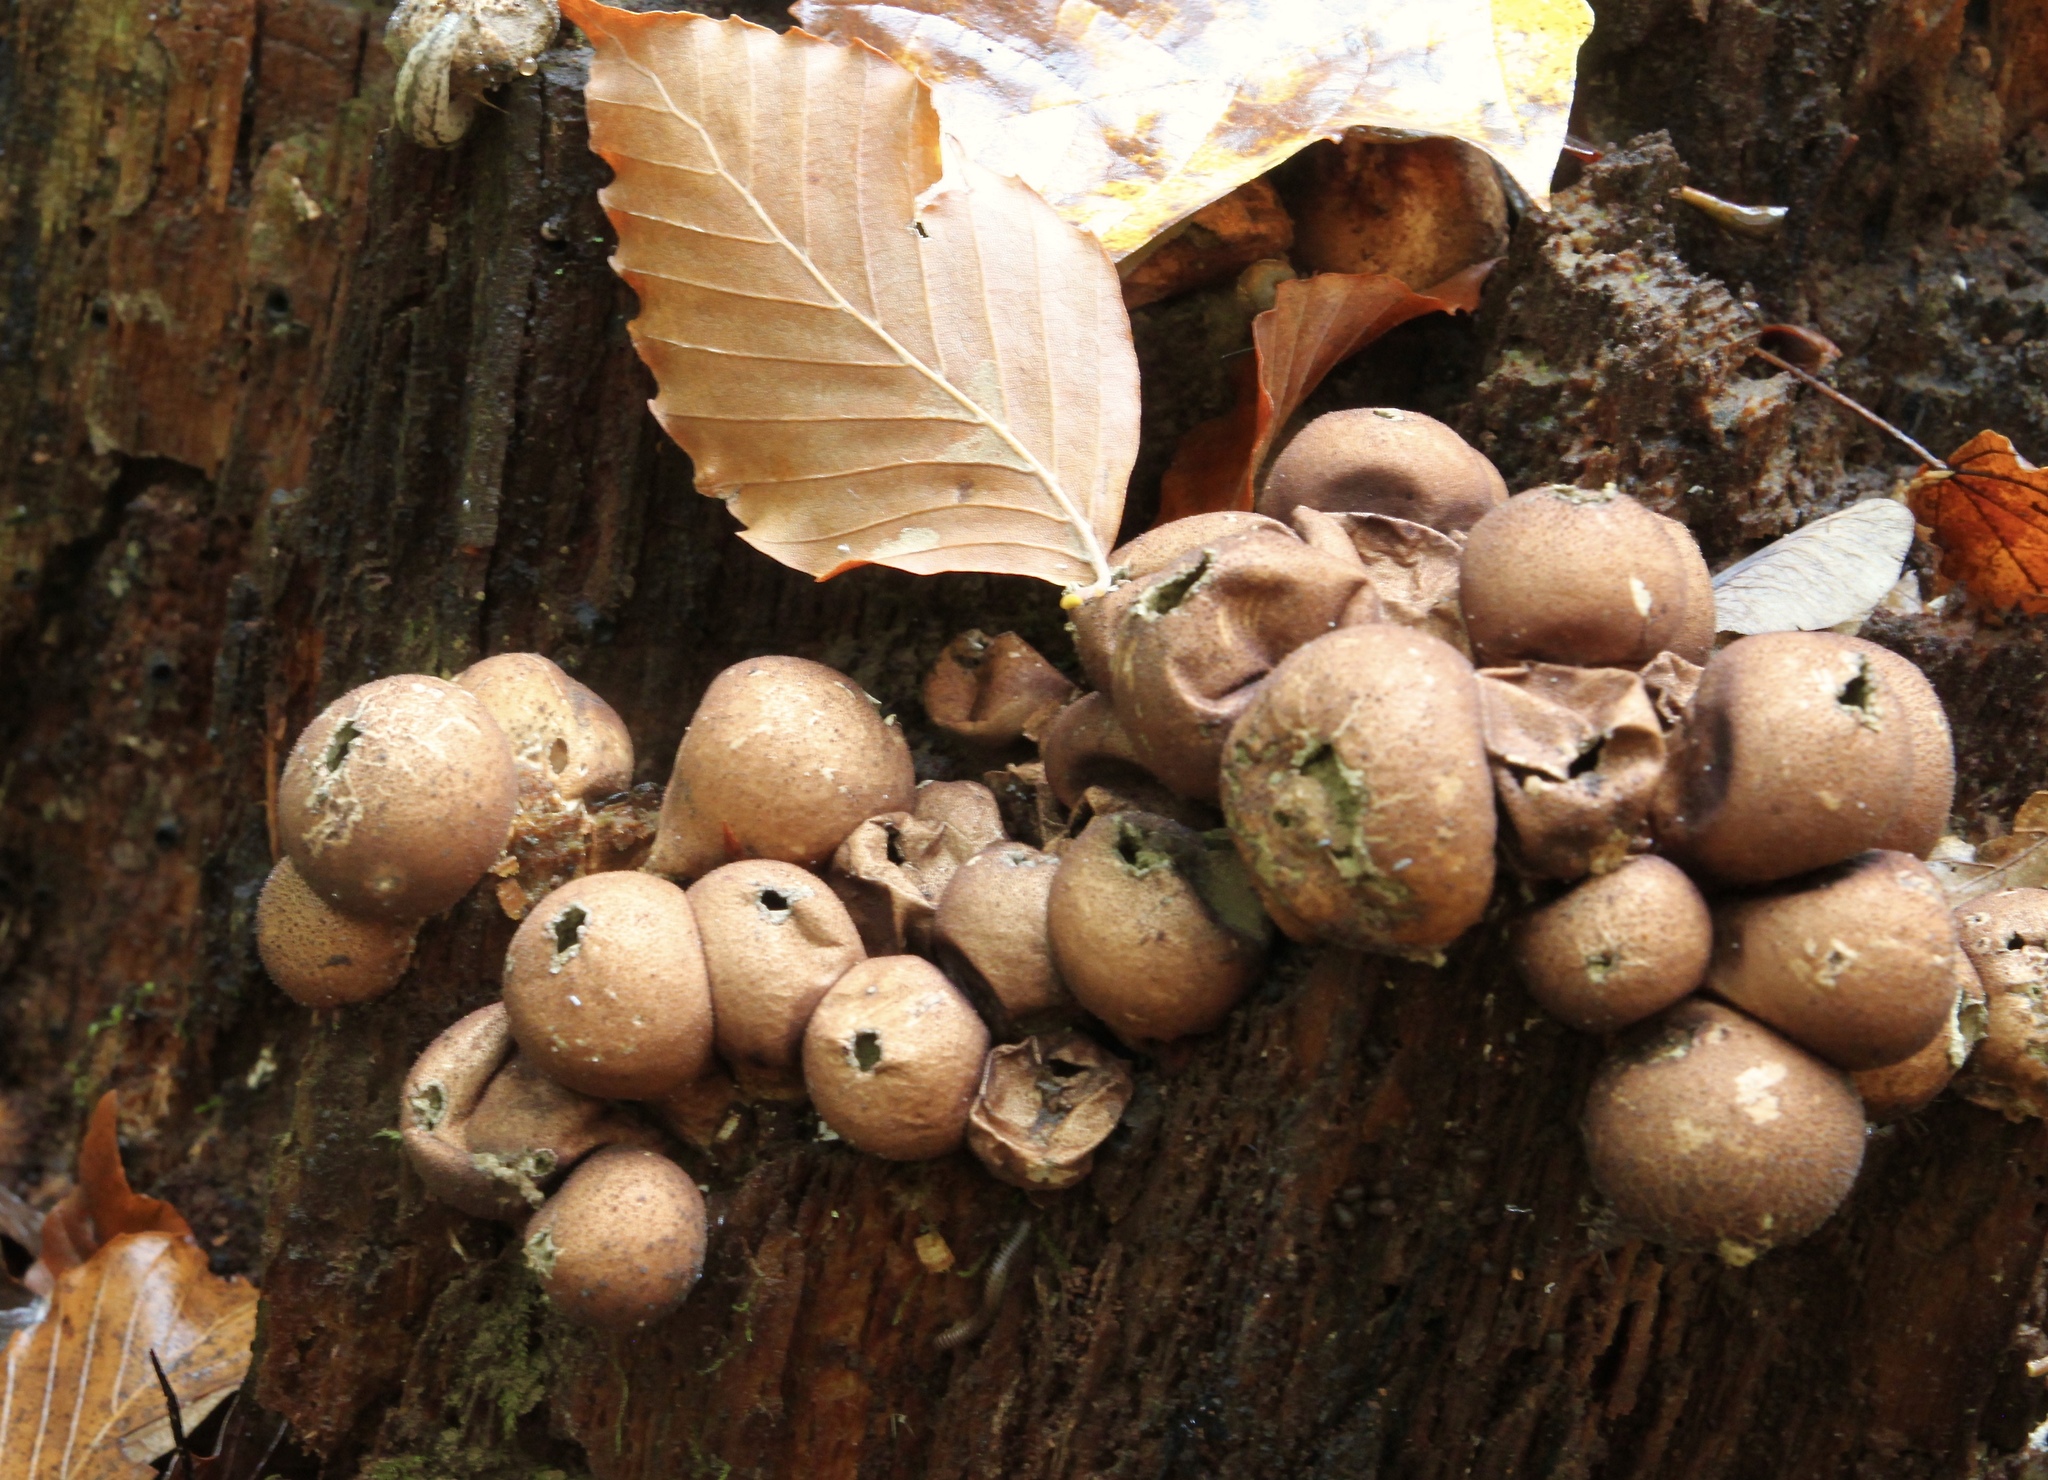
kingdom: Fungi
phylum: Basidiomycota
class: Agaricomycetes
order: Agaricales
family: Lycoperdaceae
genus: Apioperdon
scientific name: Apioperdon pyriforme
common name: Pear-shaped puffball
